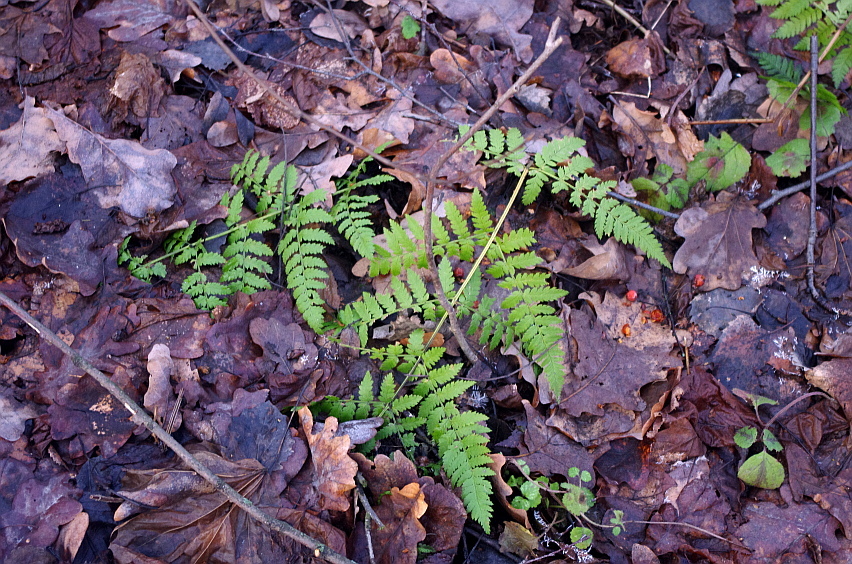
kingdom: Plantae
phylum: Tracheophyta
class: Polypodiopsida
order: Polypodiales
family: Dryopteridaceae
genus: Dryopteris
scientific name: Dryopteris carthusiana
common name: Narrow buckler-fern
